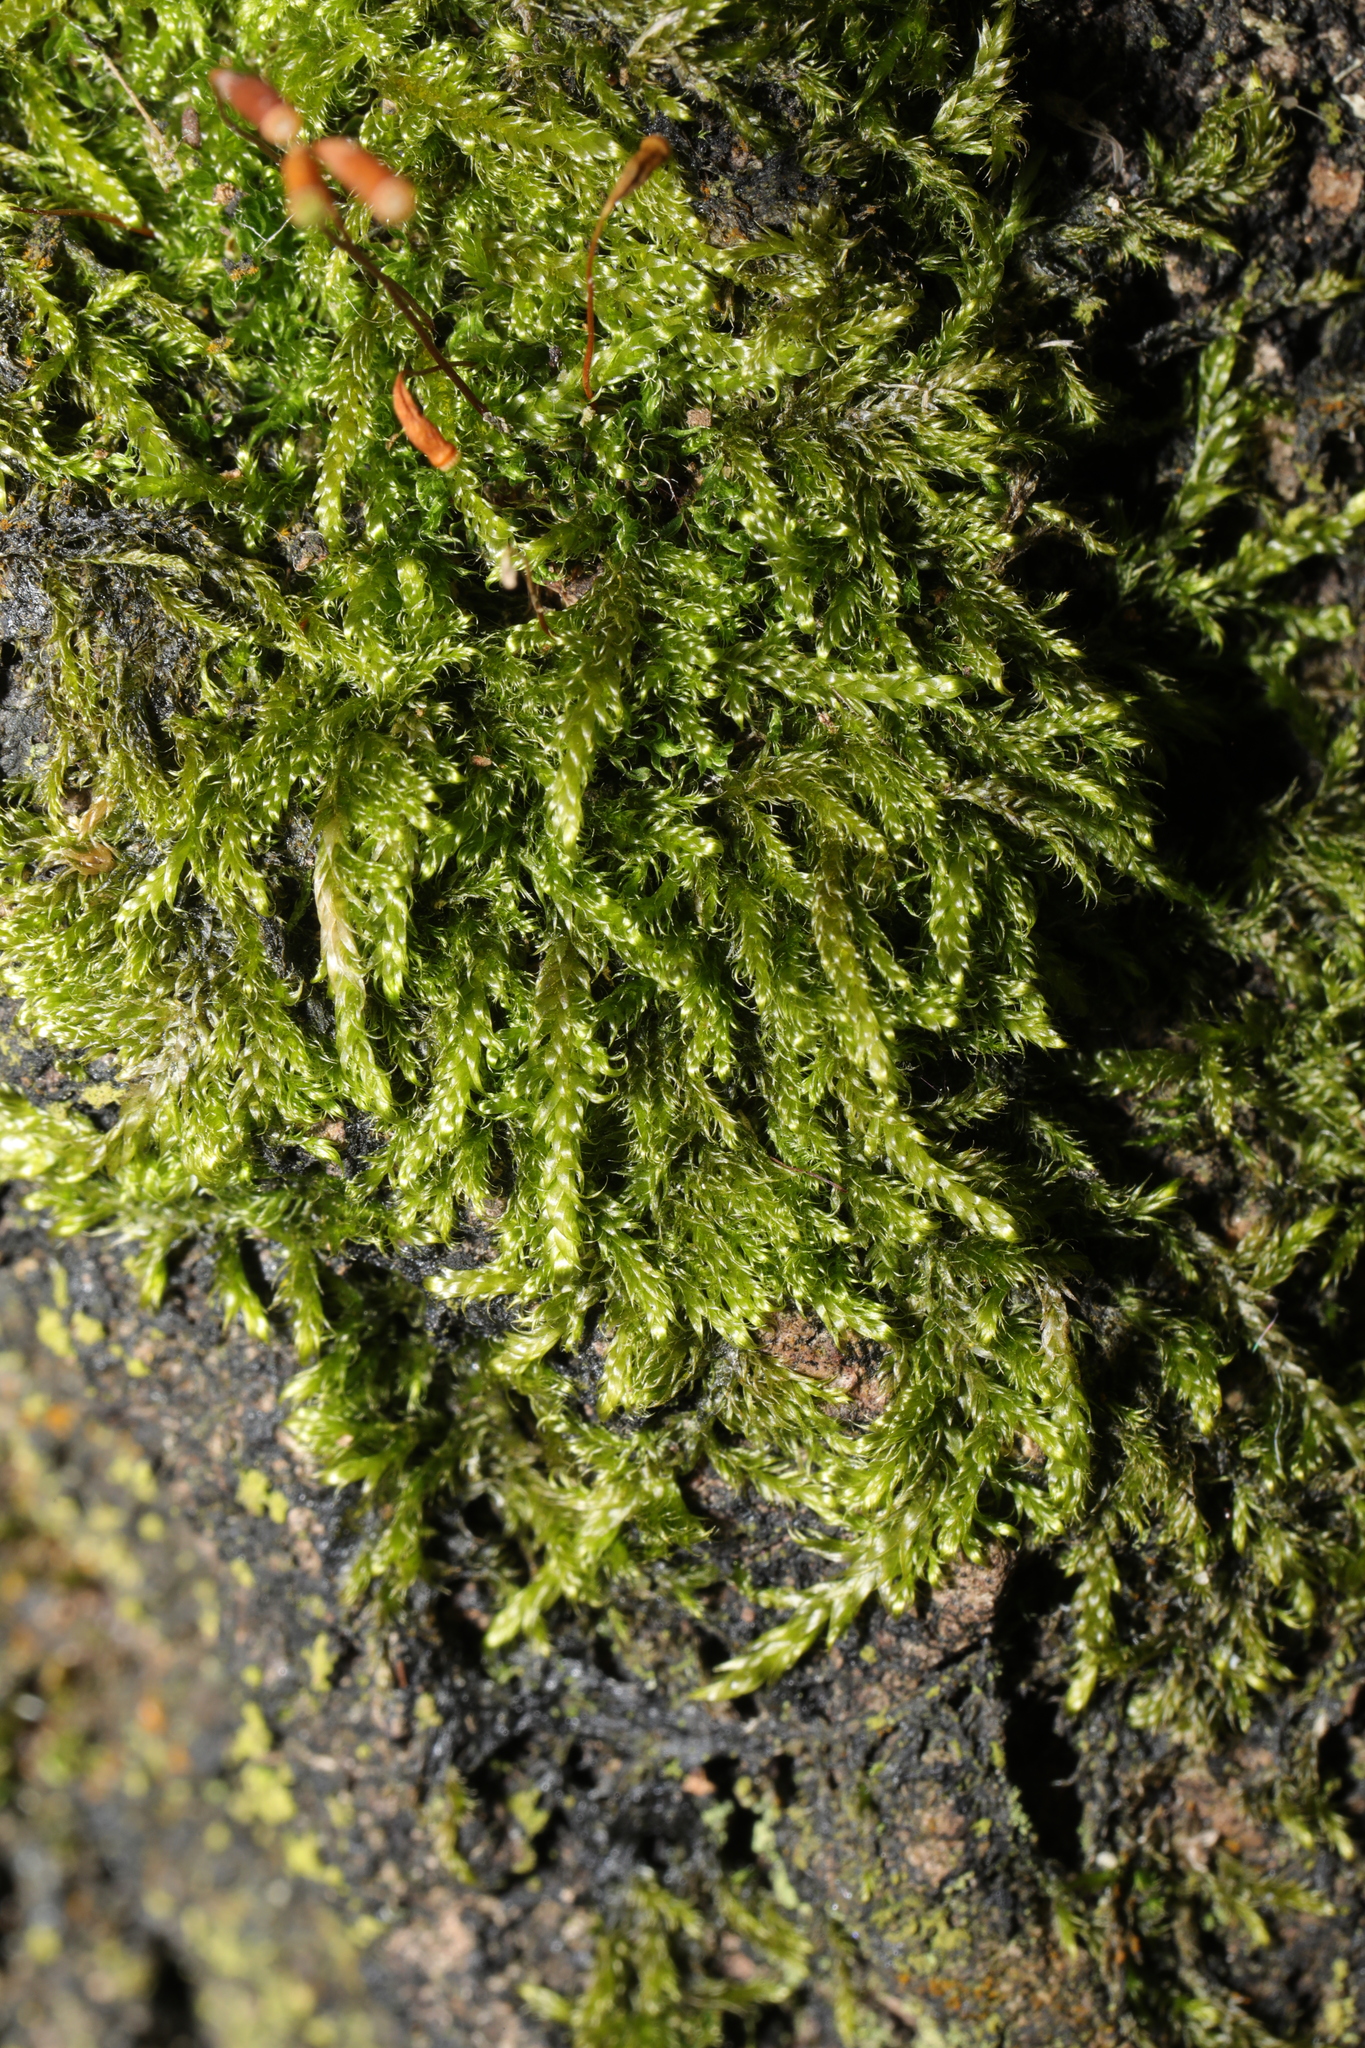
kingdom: Plantae
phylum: Bryophyta
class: Bryopsida
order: Hypnales
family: Hypnaceae
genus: Hypnum
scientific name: Hypnum cupressiforme
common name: Cypress-leaved plait-moss
